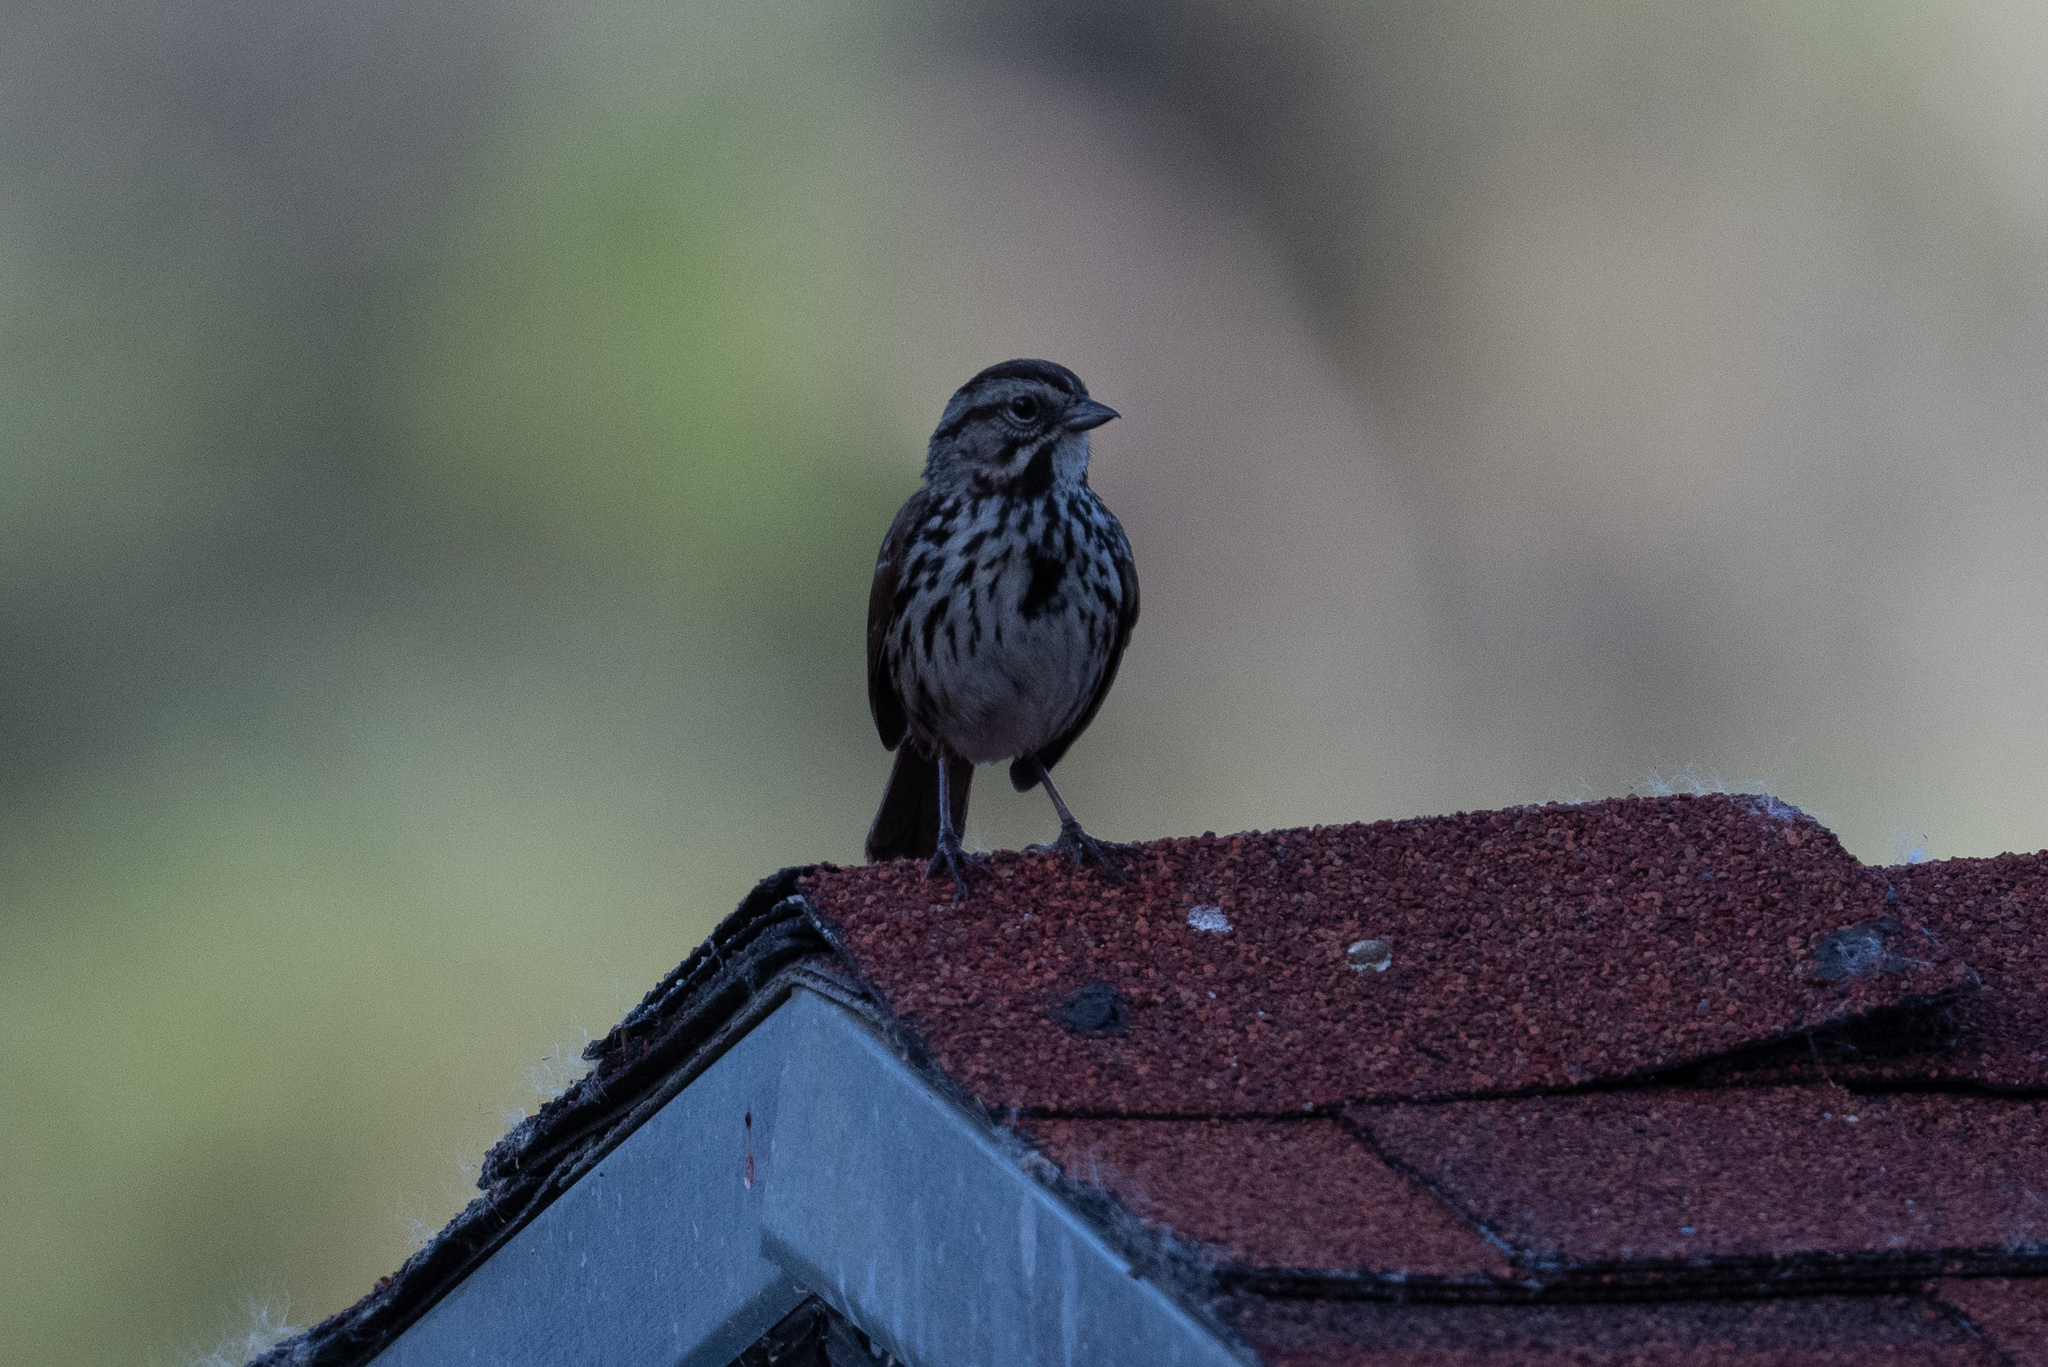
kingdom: Animalia
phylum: Chordata
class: Aves
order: Passeriformes
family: Passerellidae
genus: Melospiza
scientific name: Melospiza melodia
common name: Song sparrow
